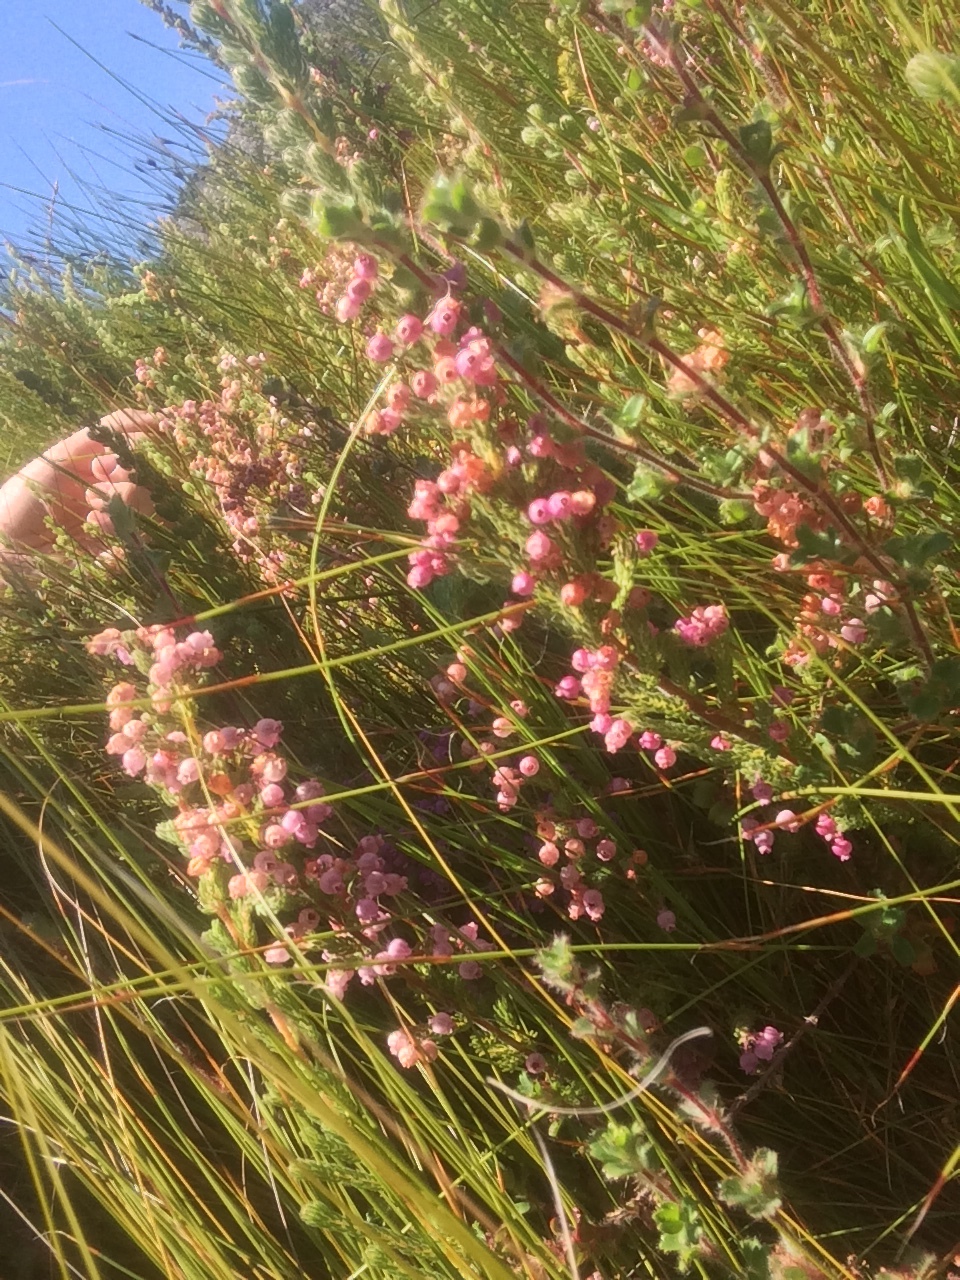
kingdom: Plantae
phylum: Tracheophyta
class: Magnoliopsida
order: Ericales
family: Ericaceae
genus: Erica
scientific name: Erica bergiana
